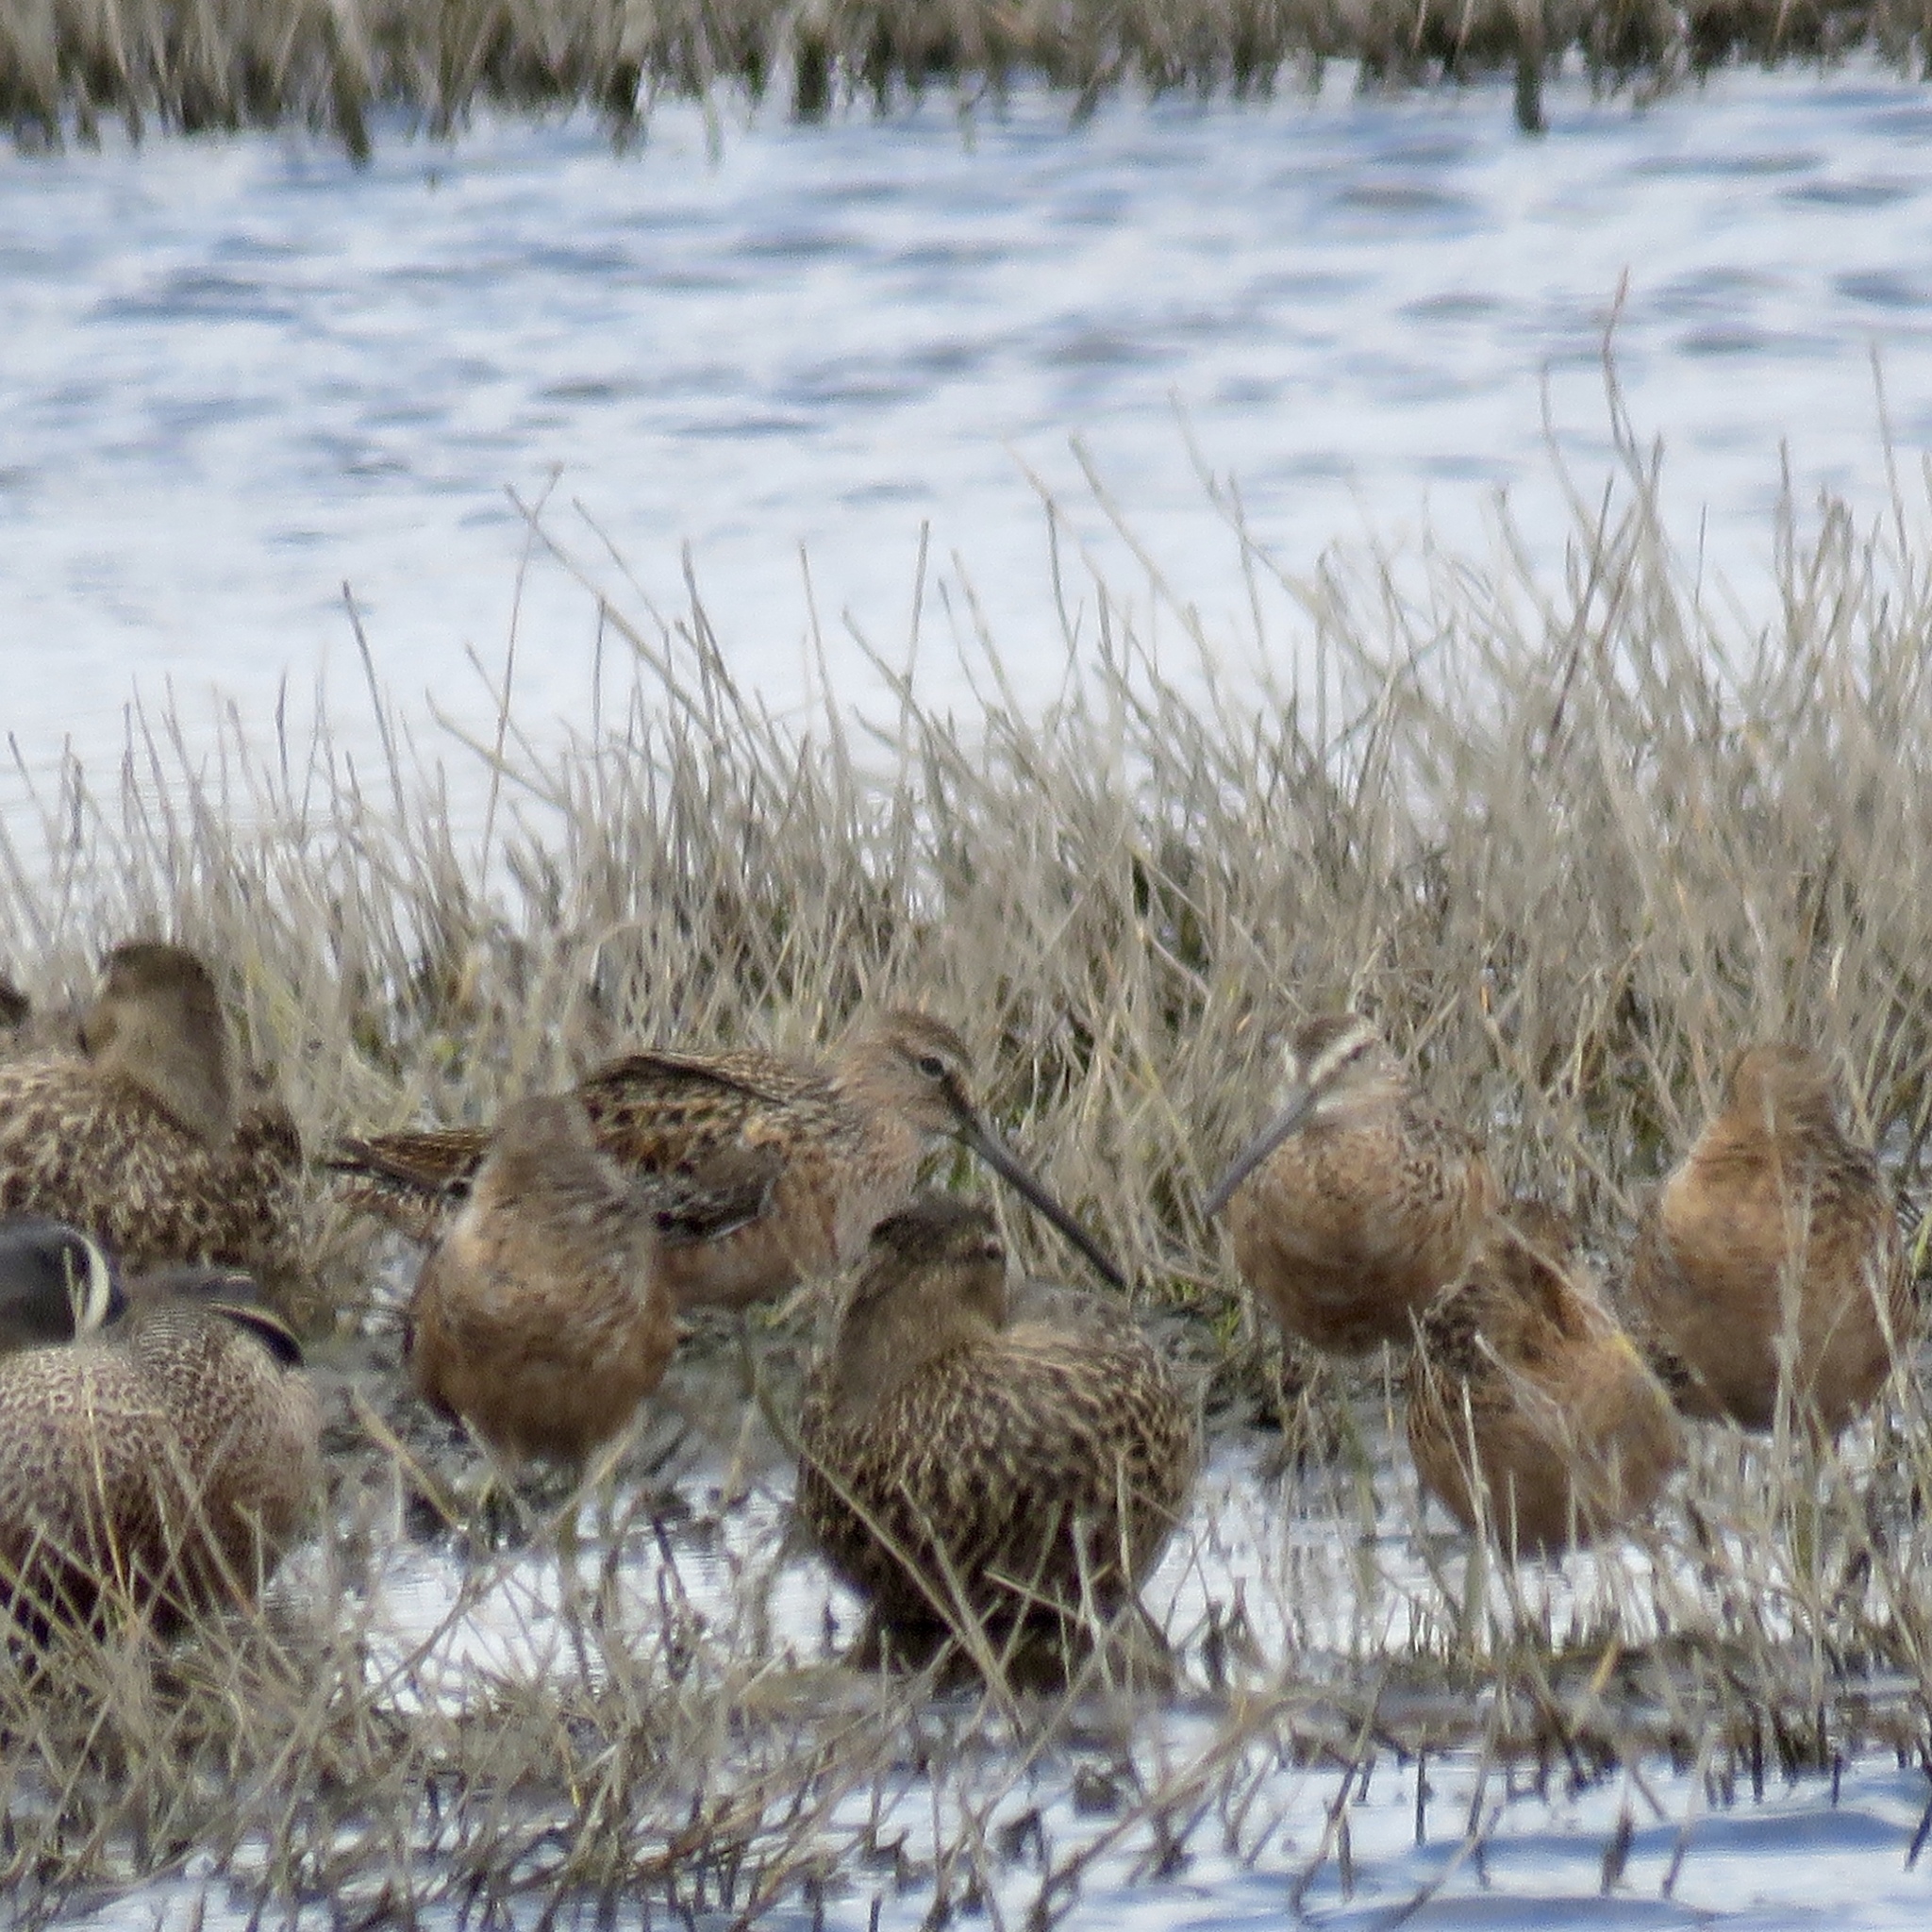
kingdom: Animalia
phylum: Chordata
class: Aves
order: Charadriiformes
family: Scolopacidae
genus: Tringa
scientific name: Tringa semipalmata
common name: Willet
